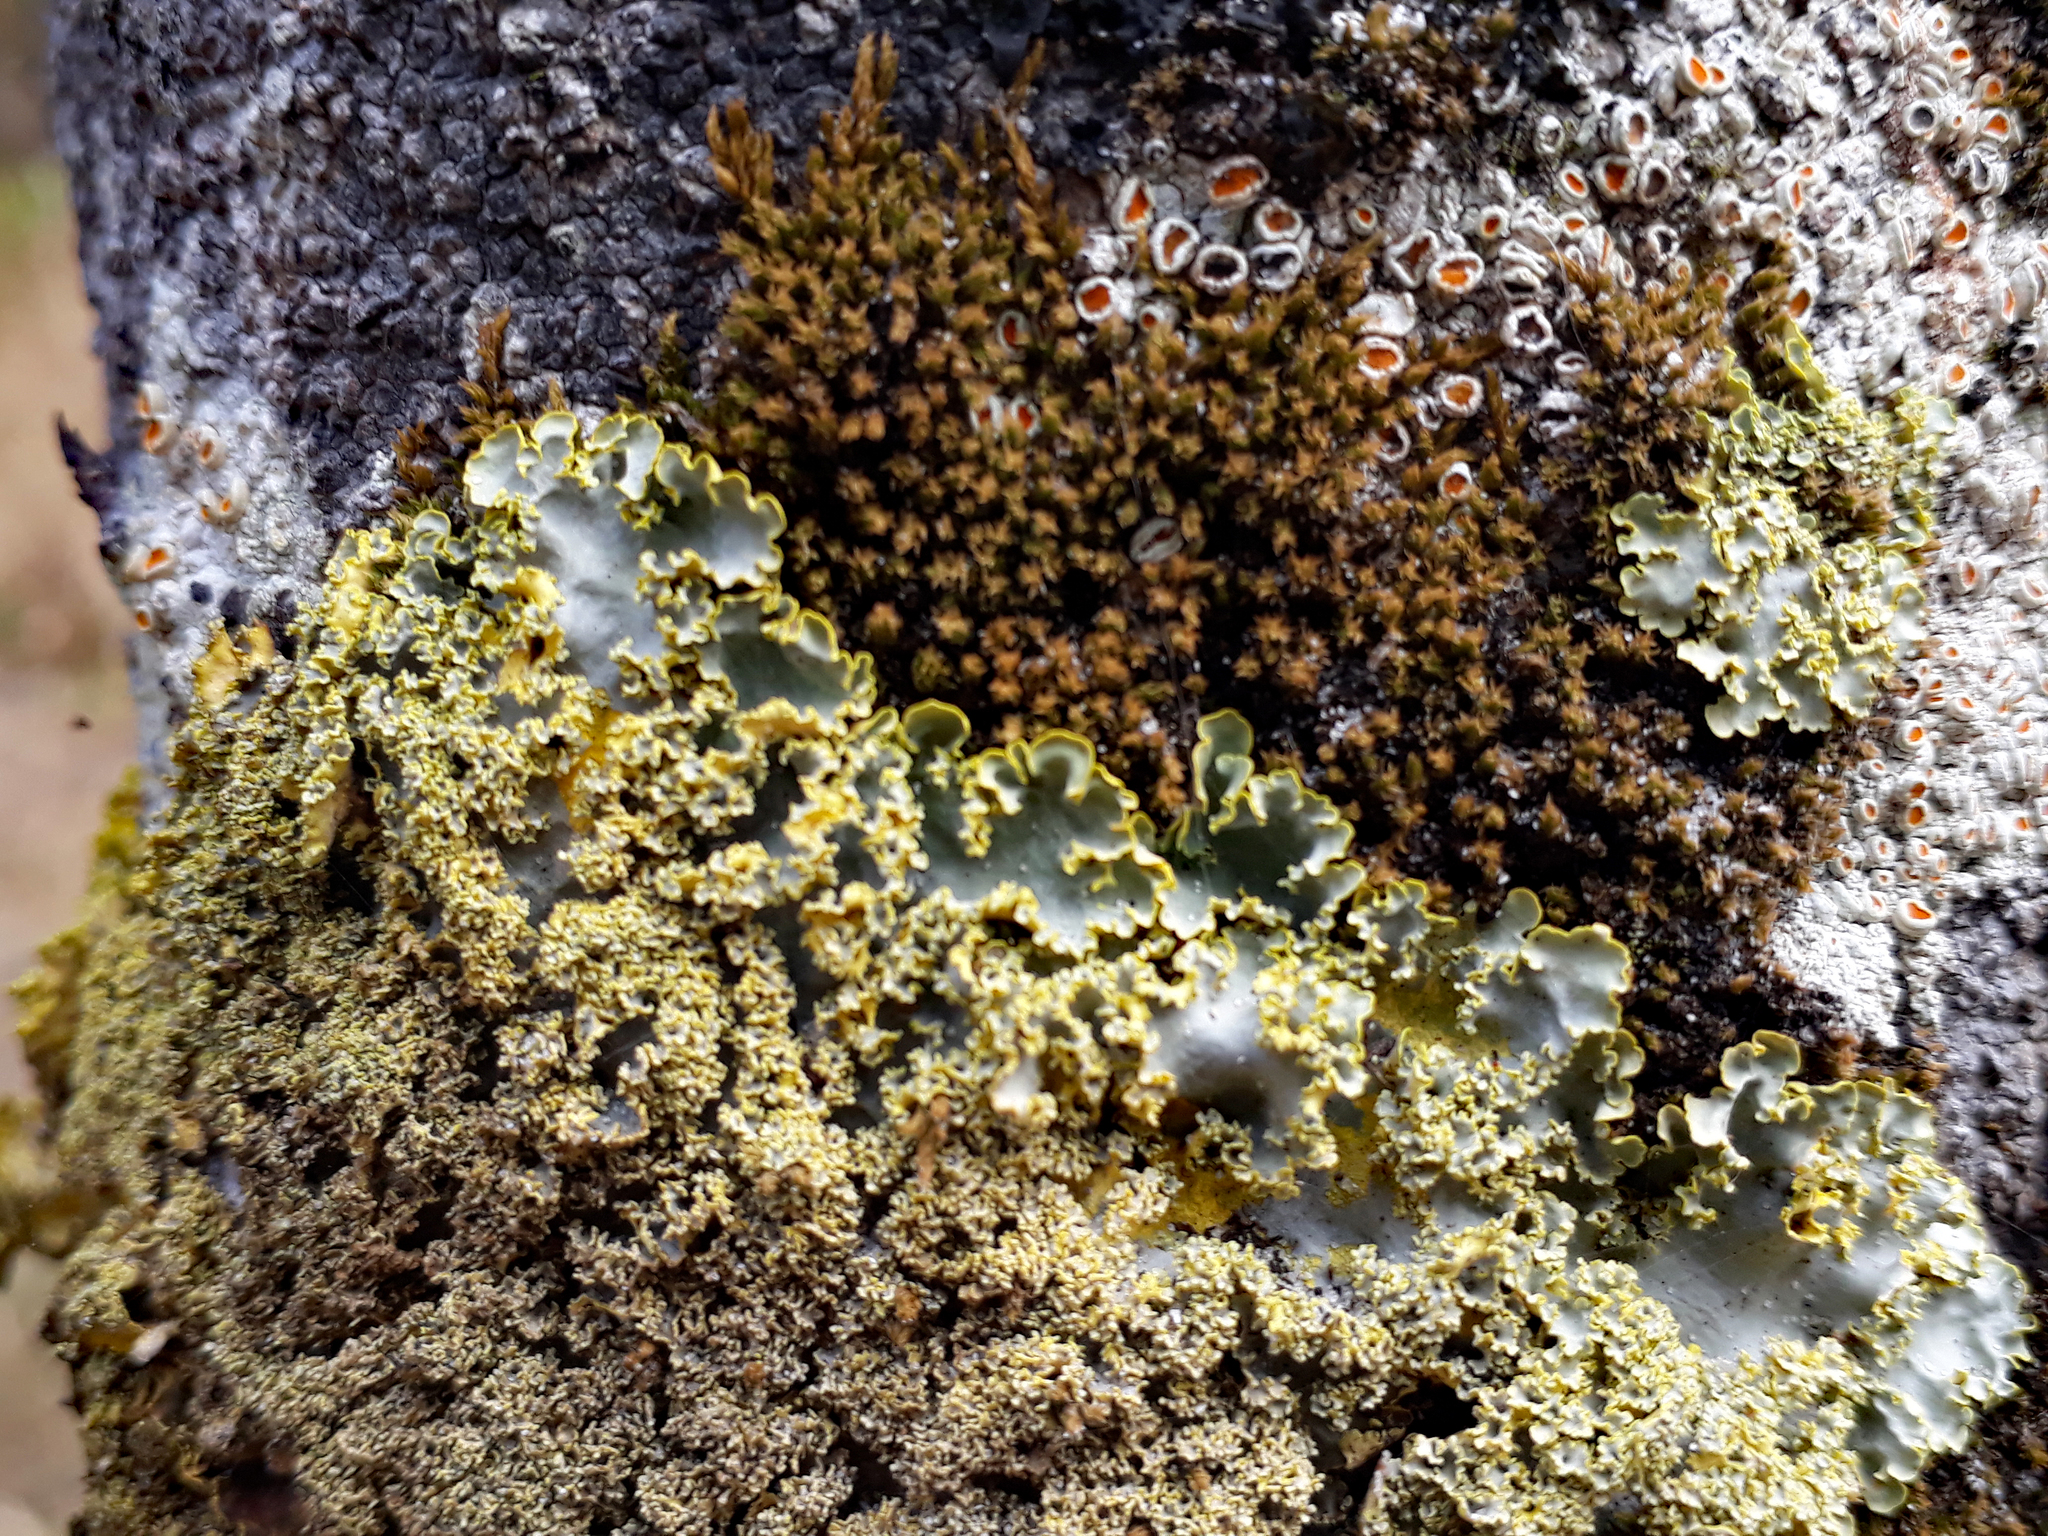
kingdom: Fungi
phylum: Ascomycota
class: Lecanoromycetes
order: Peltigerales
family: Lobariaceae
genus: Podostictina
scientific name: Podostictina pickeringii
